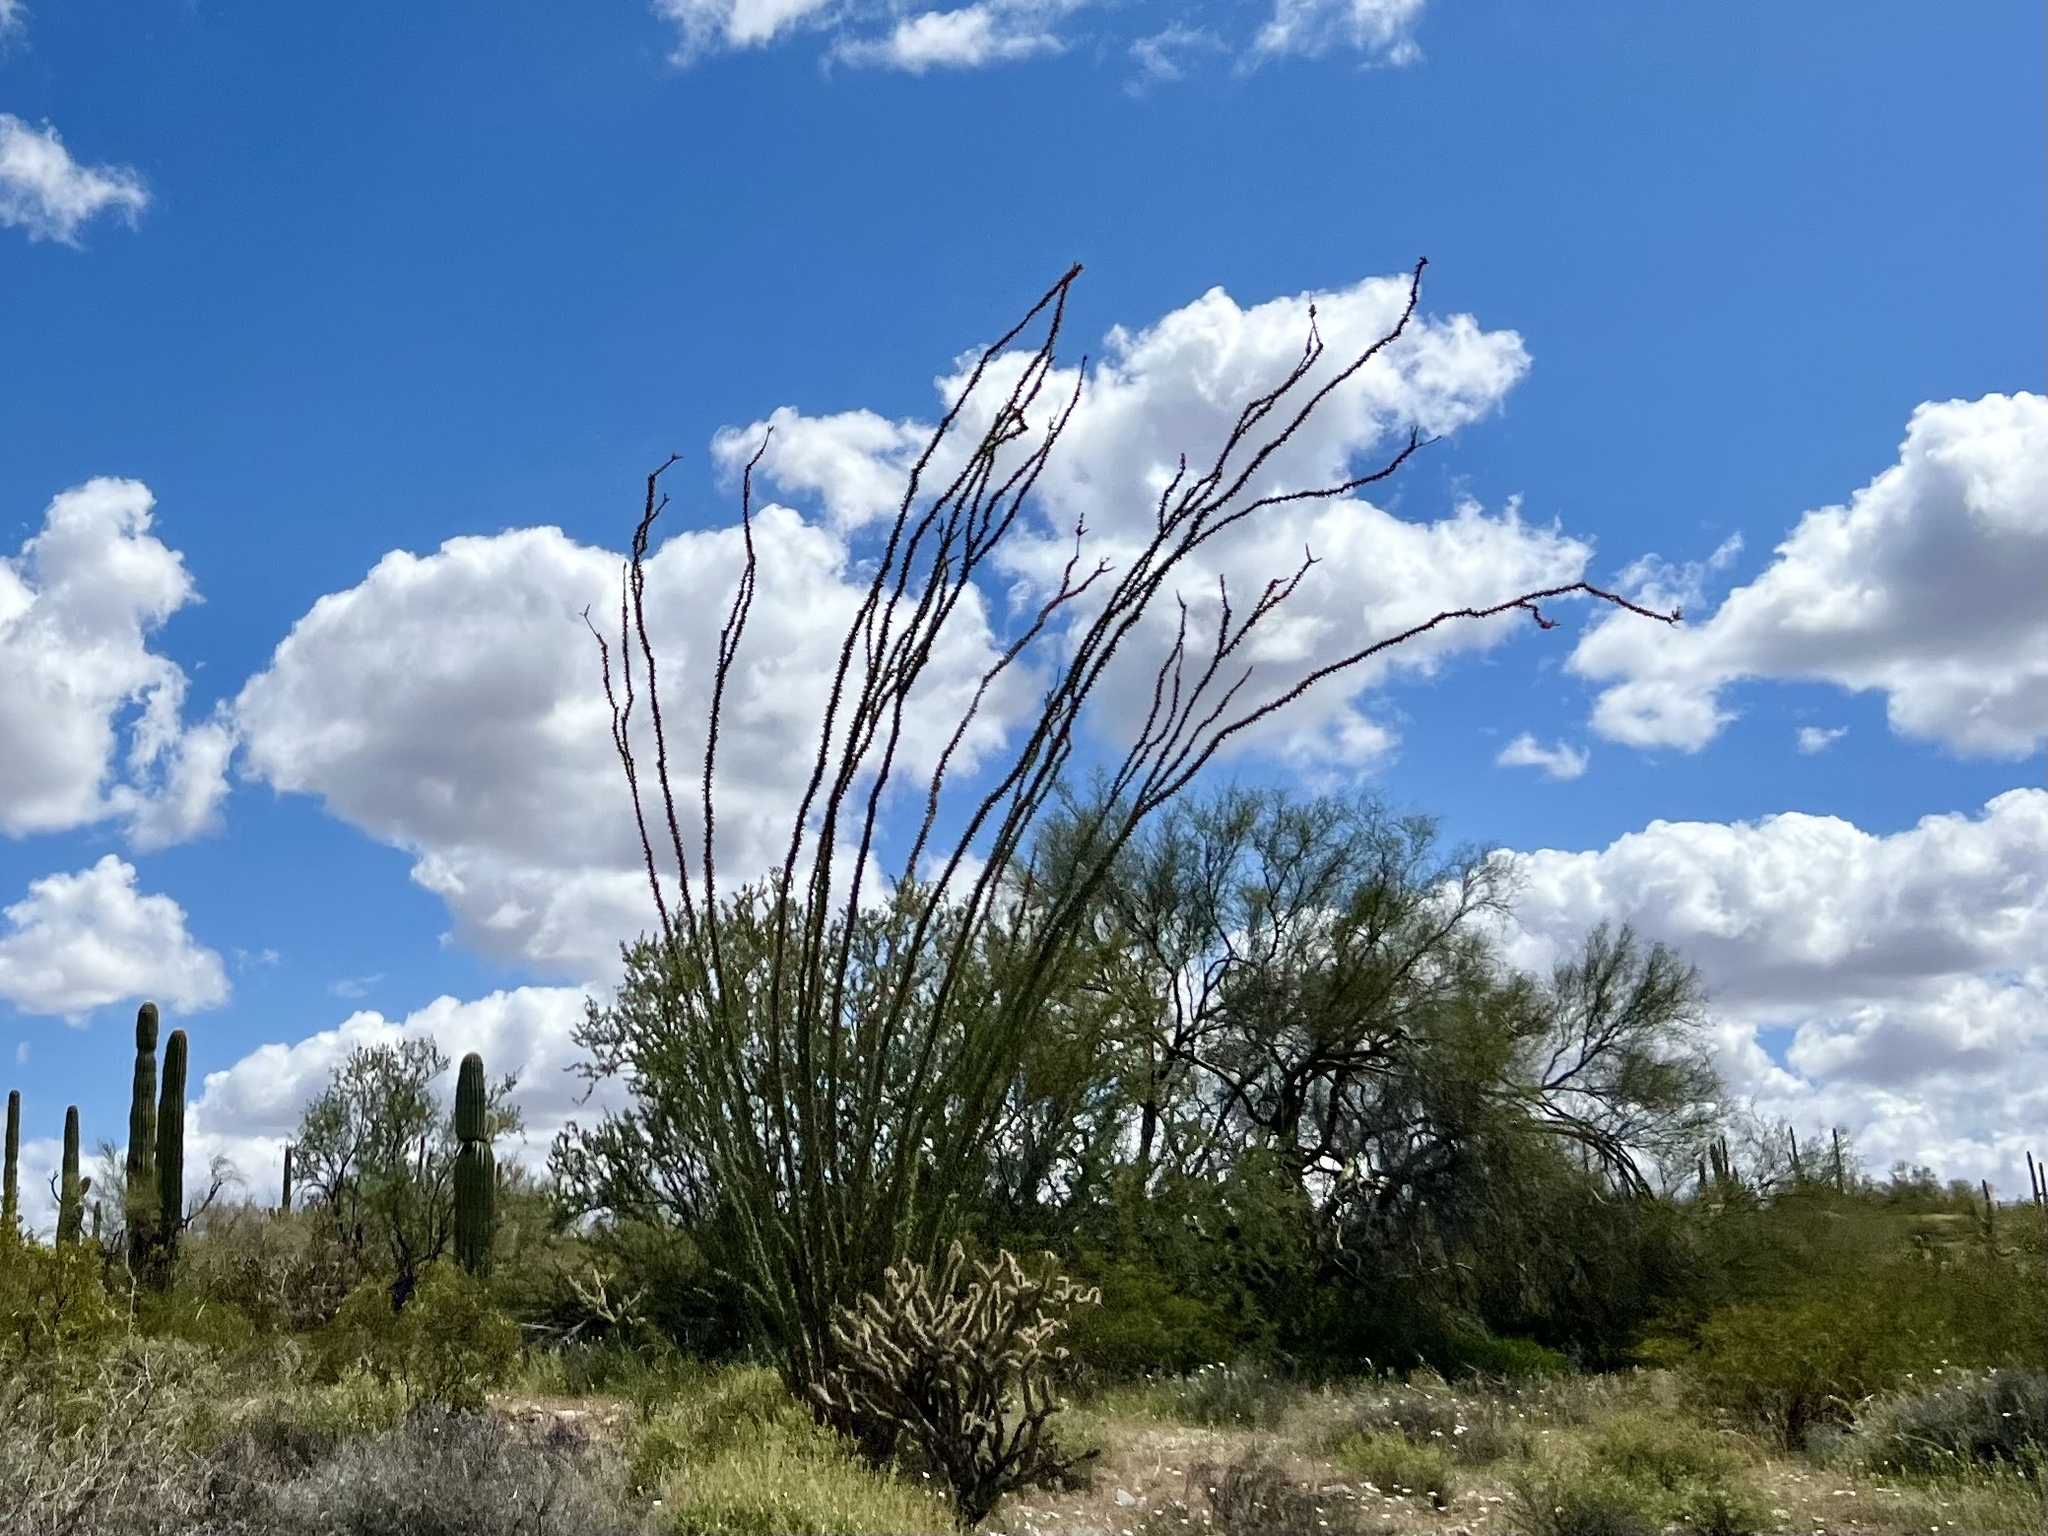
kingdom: Plantae
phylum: Tracheophyta
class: Magnoliopsida
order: Ericales
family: Fouquieriaceae
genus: Fouquieria
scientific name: Fouquieria splendens
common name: Vine-cactus
